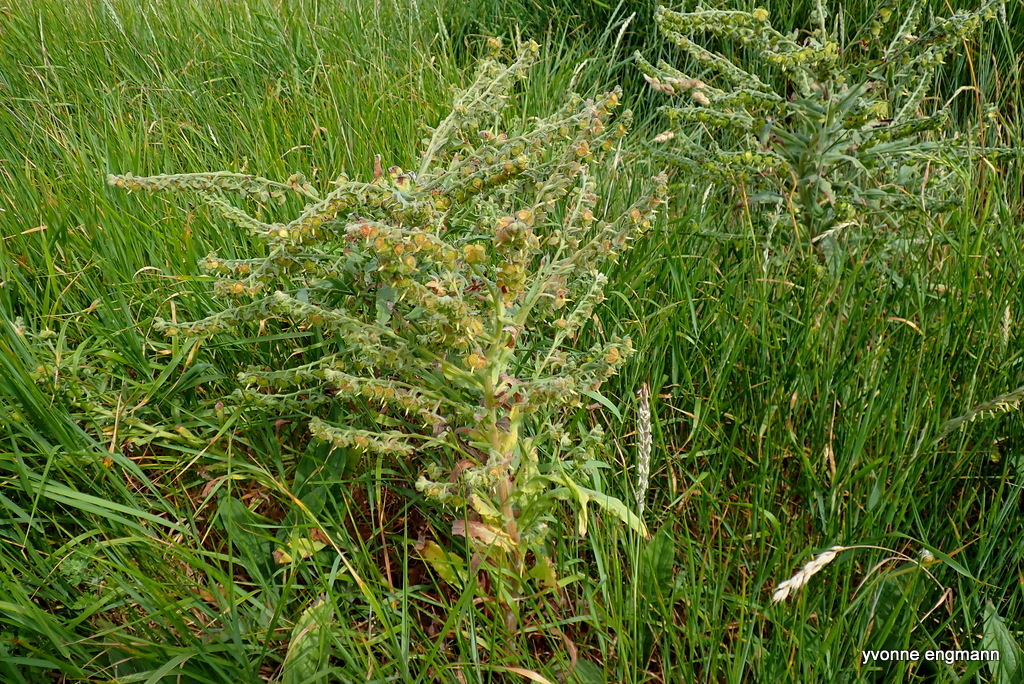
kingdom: Plantae
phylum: Tracheophyta
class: Magnoliopsida
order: Boraginales
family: Boraginaceae
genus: Cynoglossum
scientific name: Cynoglossum officinale
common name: Hound's-tongue
